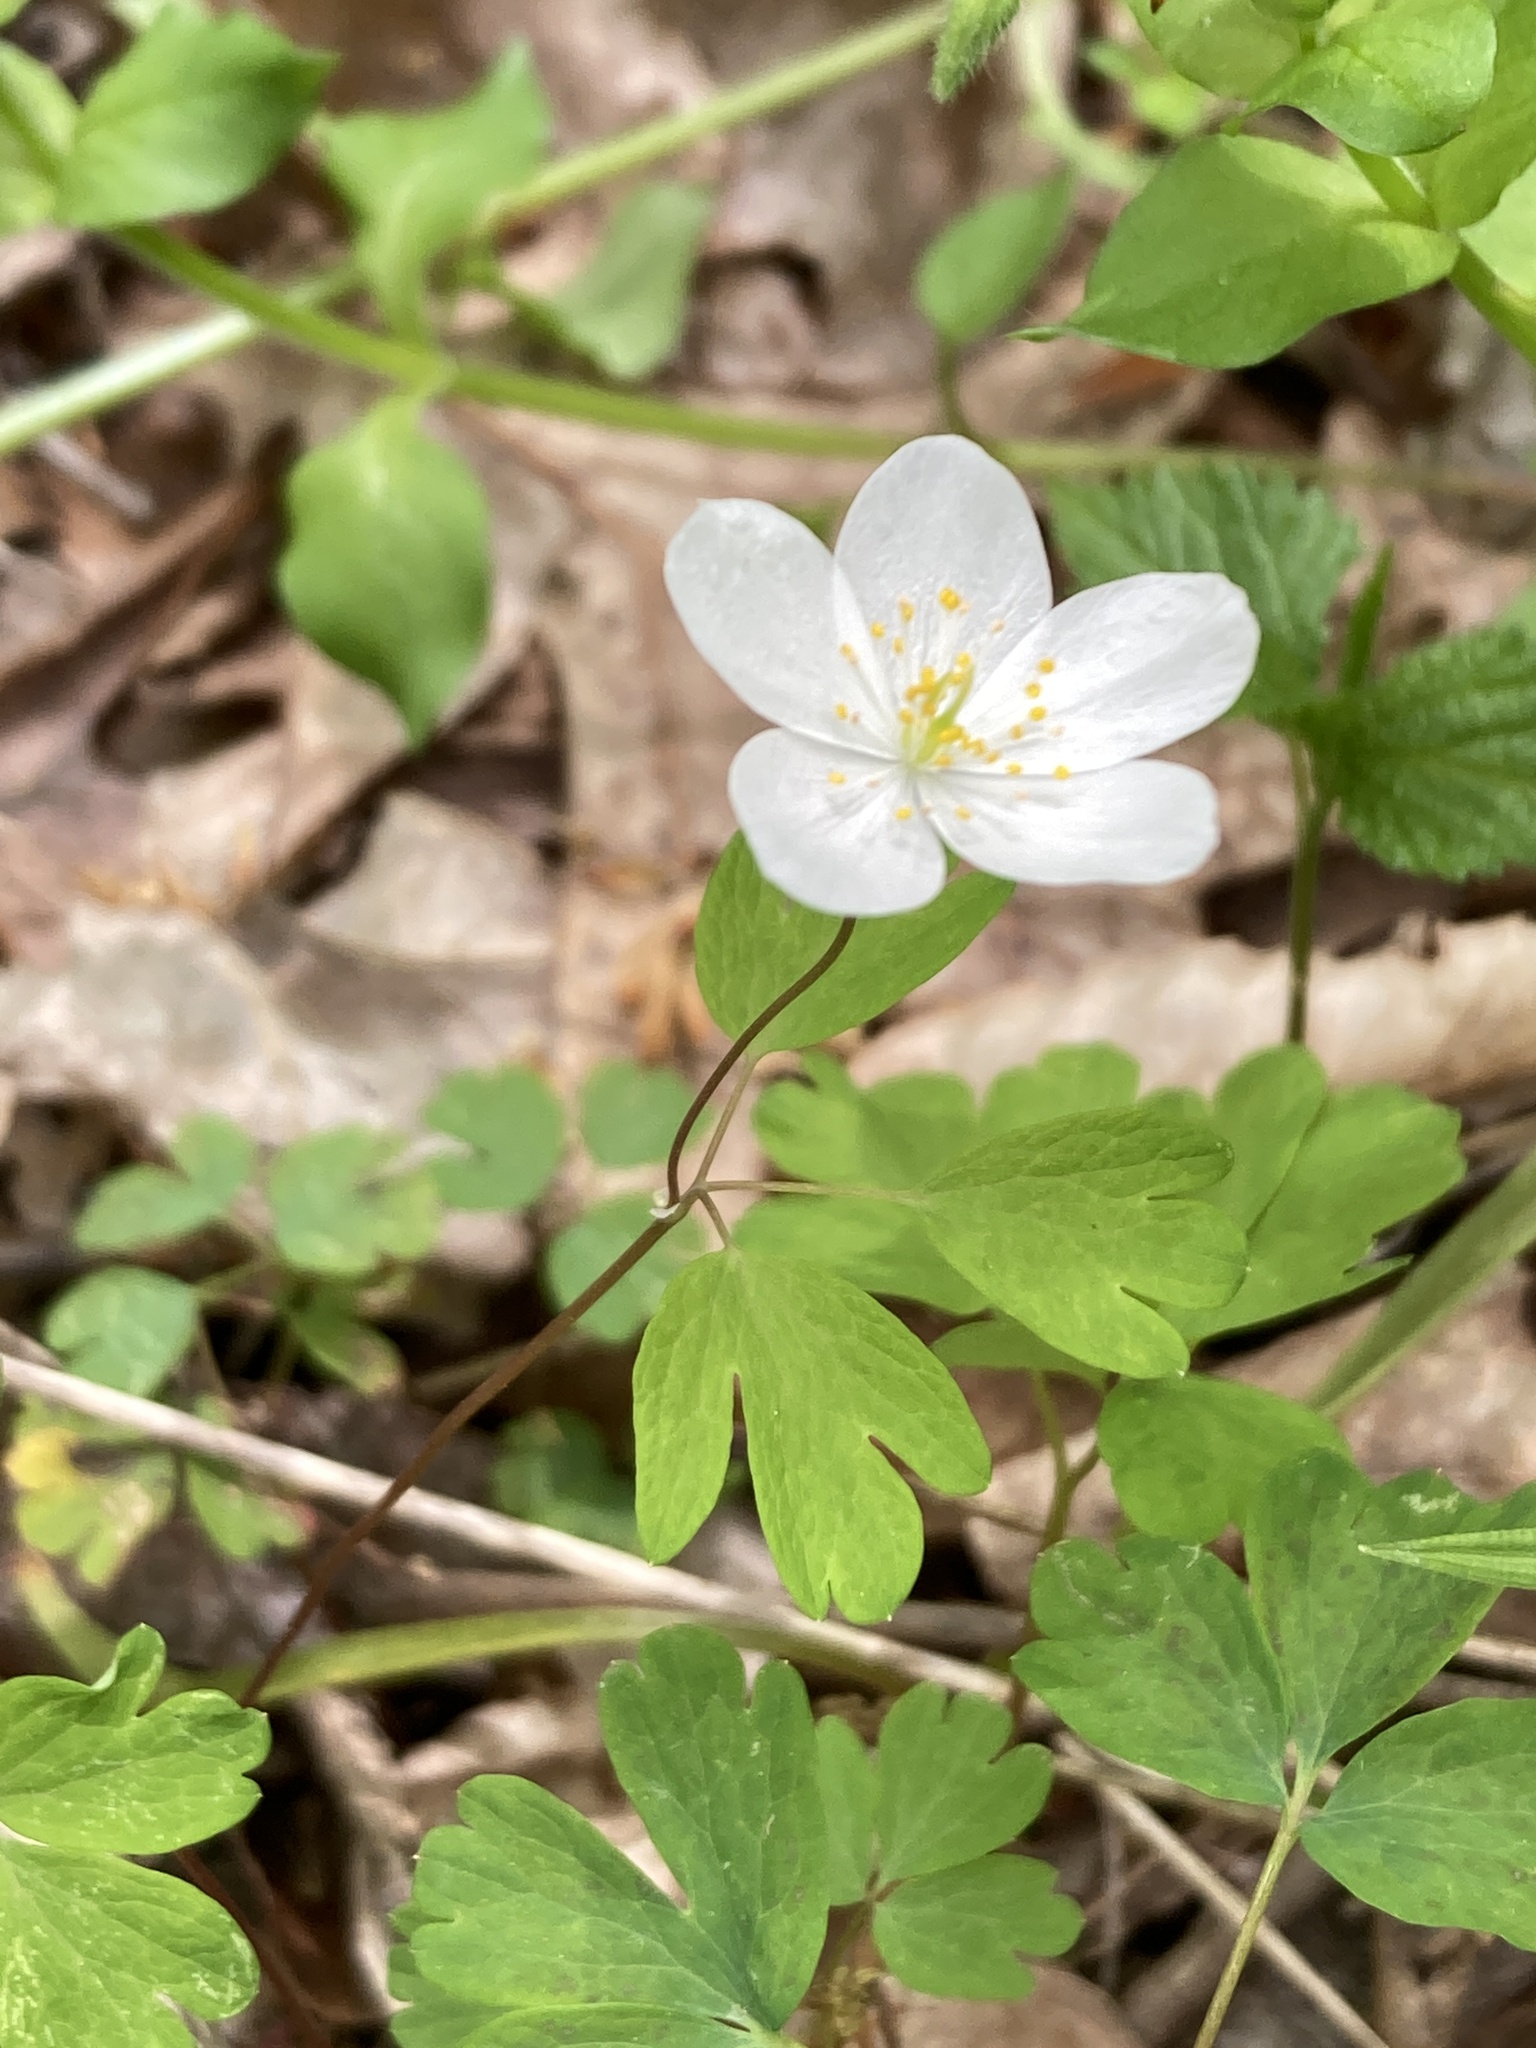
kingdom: Plantae
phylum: Tracheophyta
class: Magnoliopsida
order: Ranunculales
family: Ranunculaceae
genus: Enemion
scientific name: Enemion biternatum
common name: Eastern false rue-anemone
